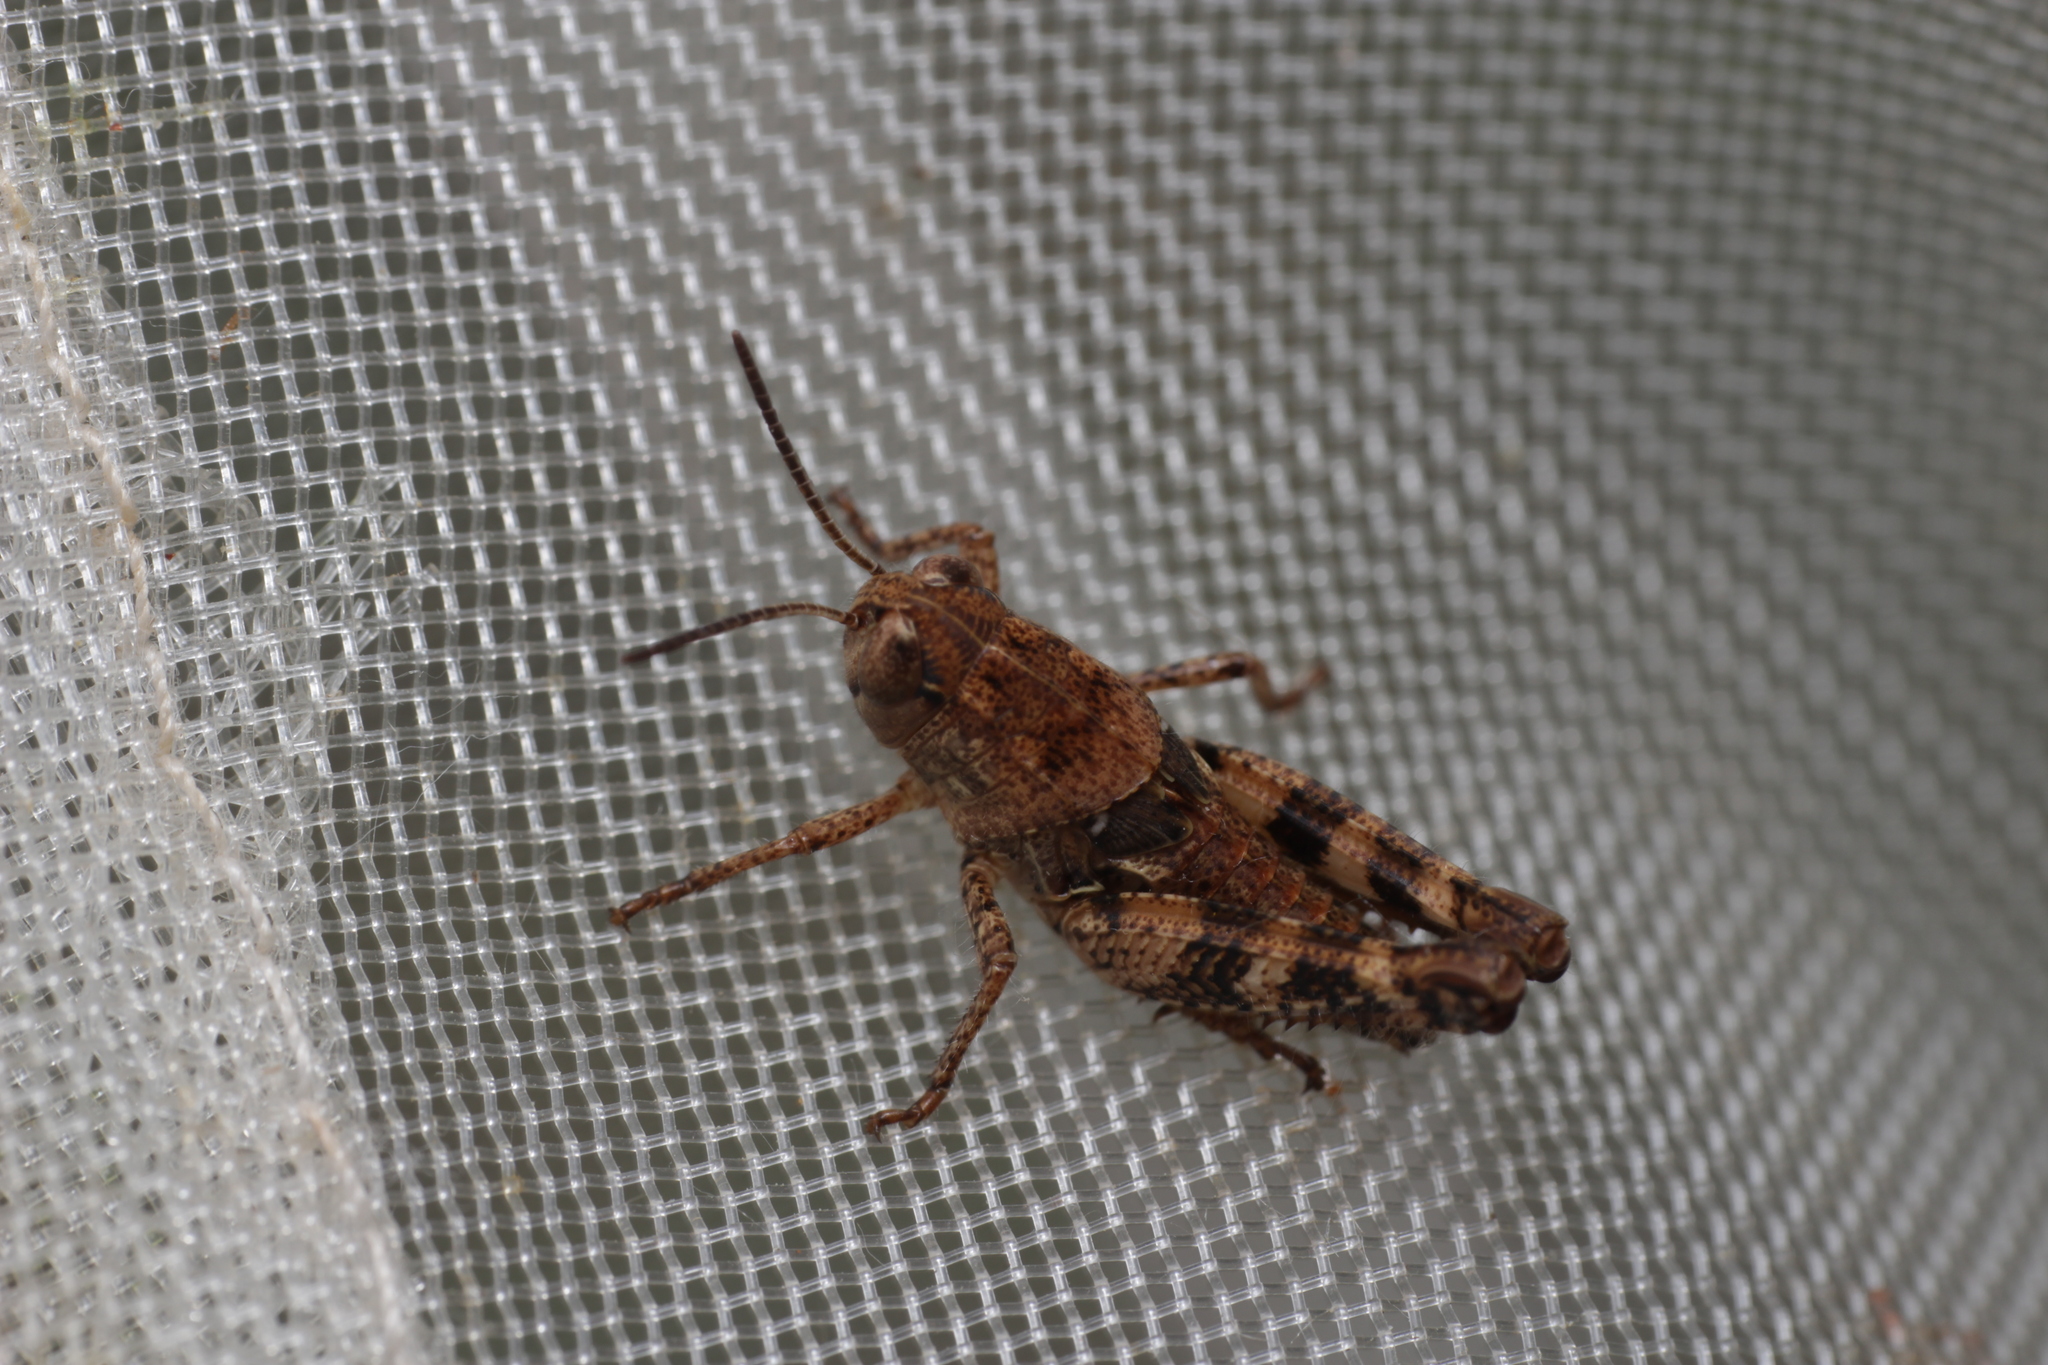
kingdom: Animalia
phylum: Arthropoda
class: Insecta
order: Orthoptera
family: Acrididae
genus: Calliptamus
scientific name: Calliptamus italicus
